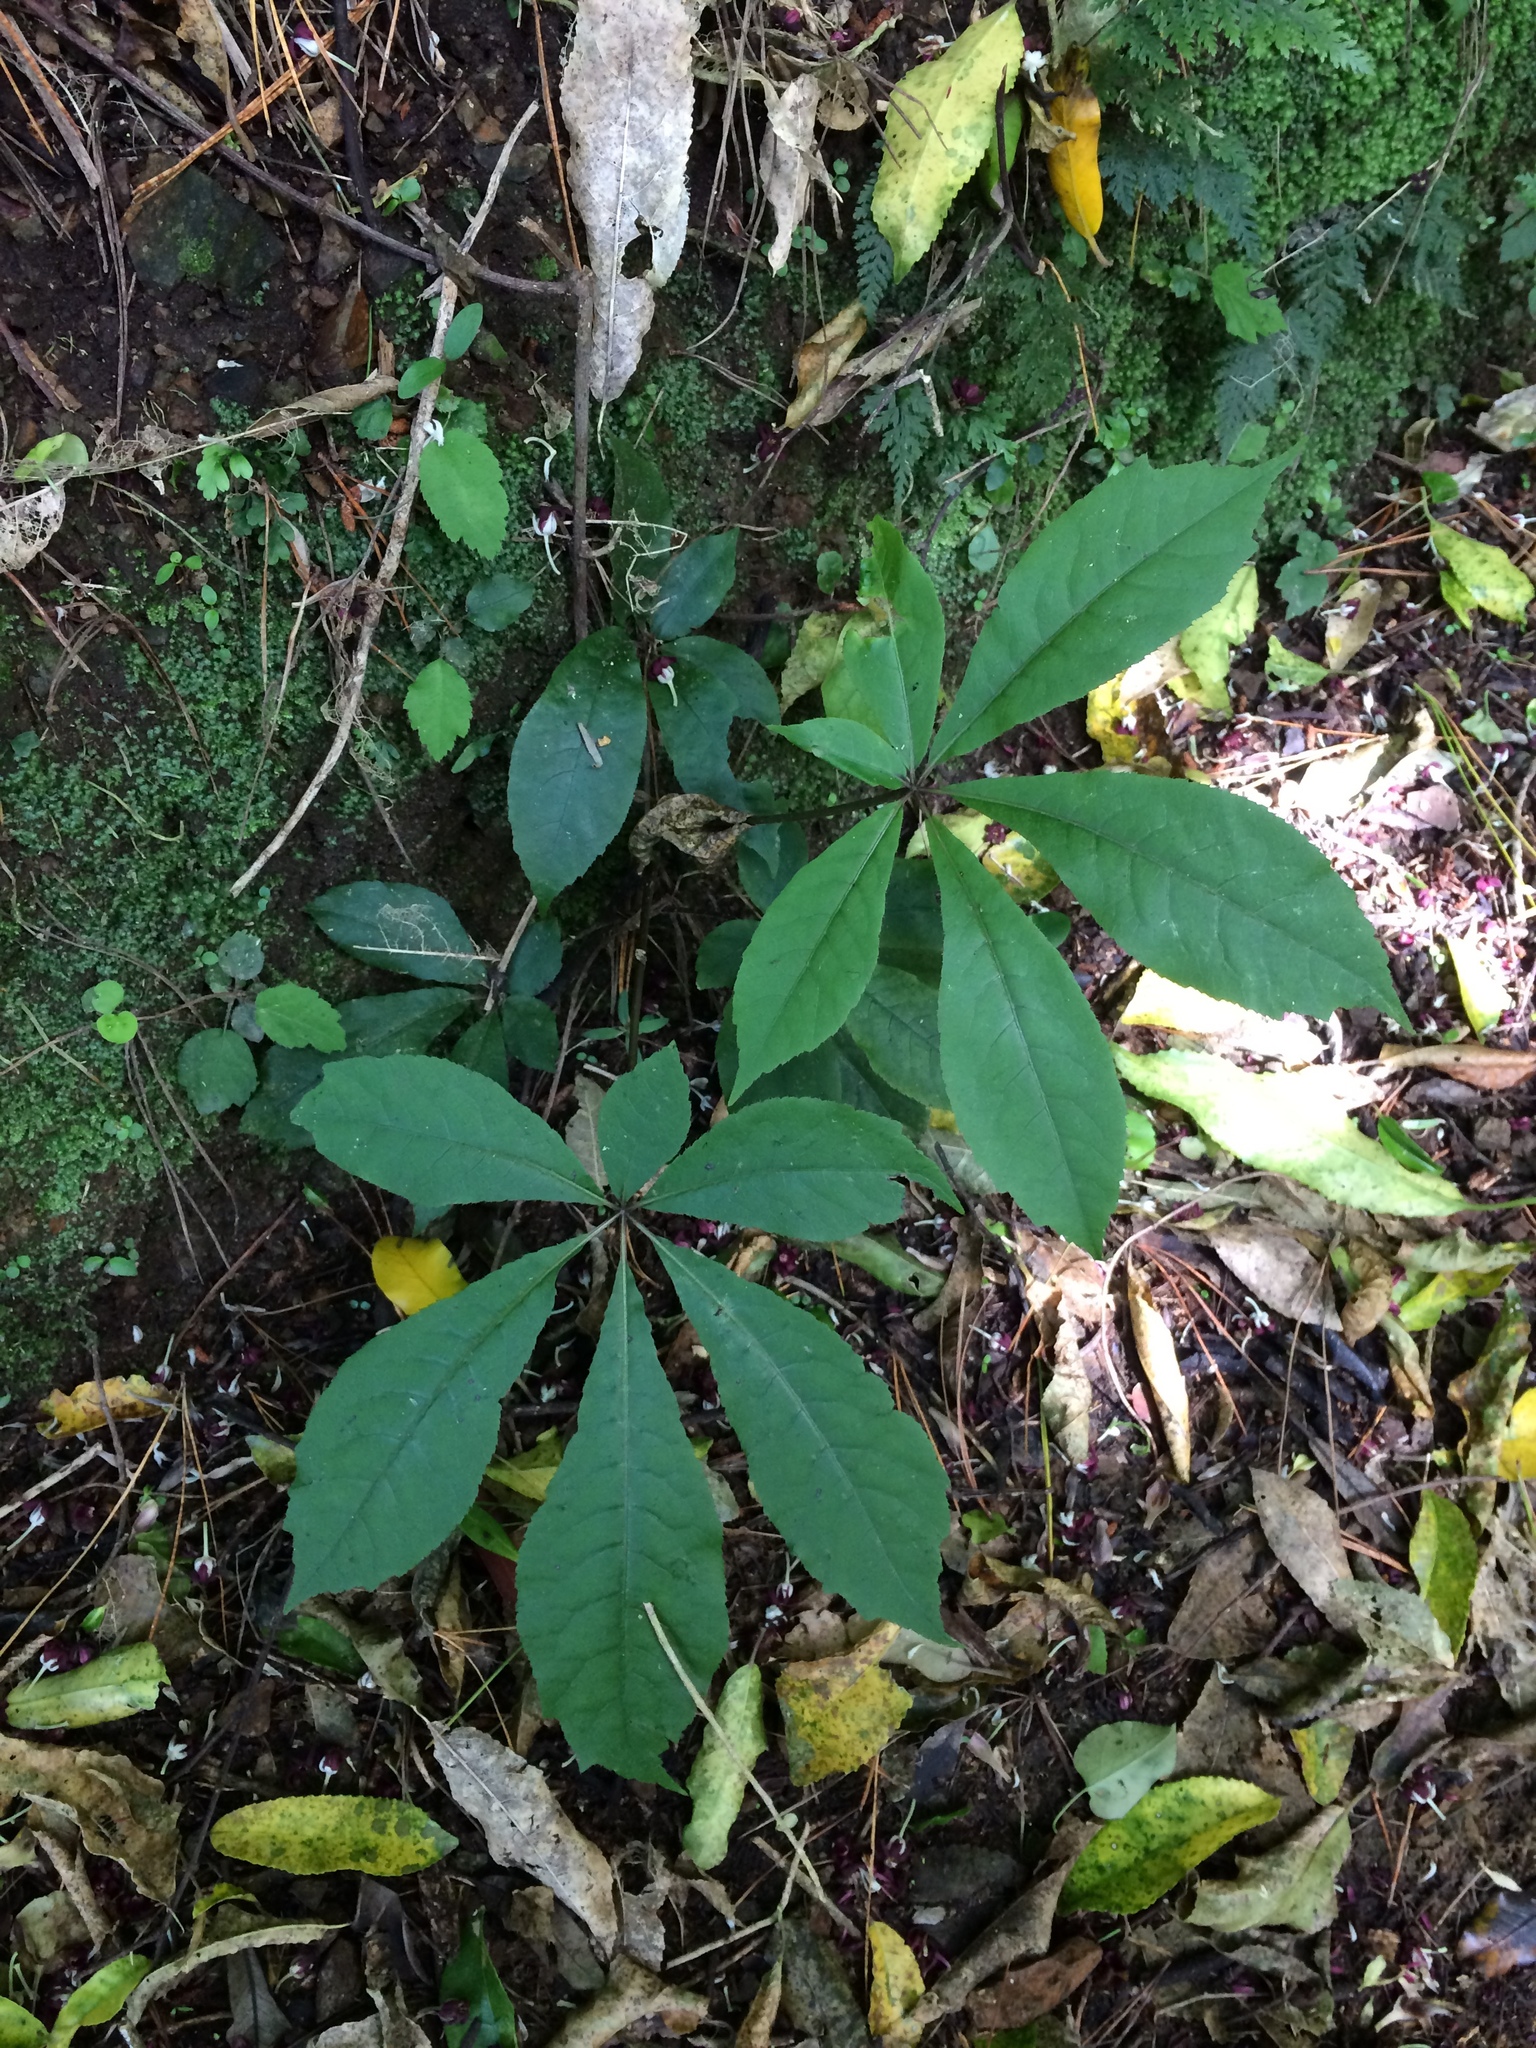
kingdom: Plantae
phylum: Tracheophyta
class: Magnoliopsida
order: Apiales
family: Araliaceae
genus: Schefflera
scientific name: Schefflera digitata
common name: Pate
